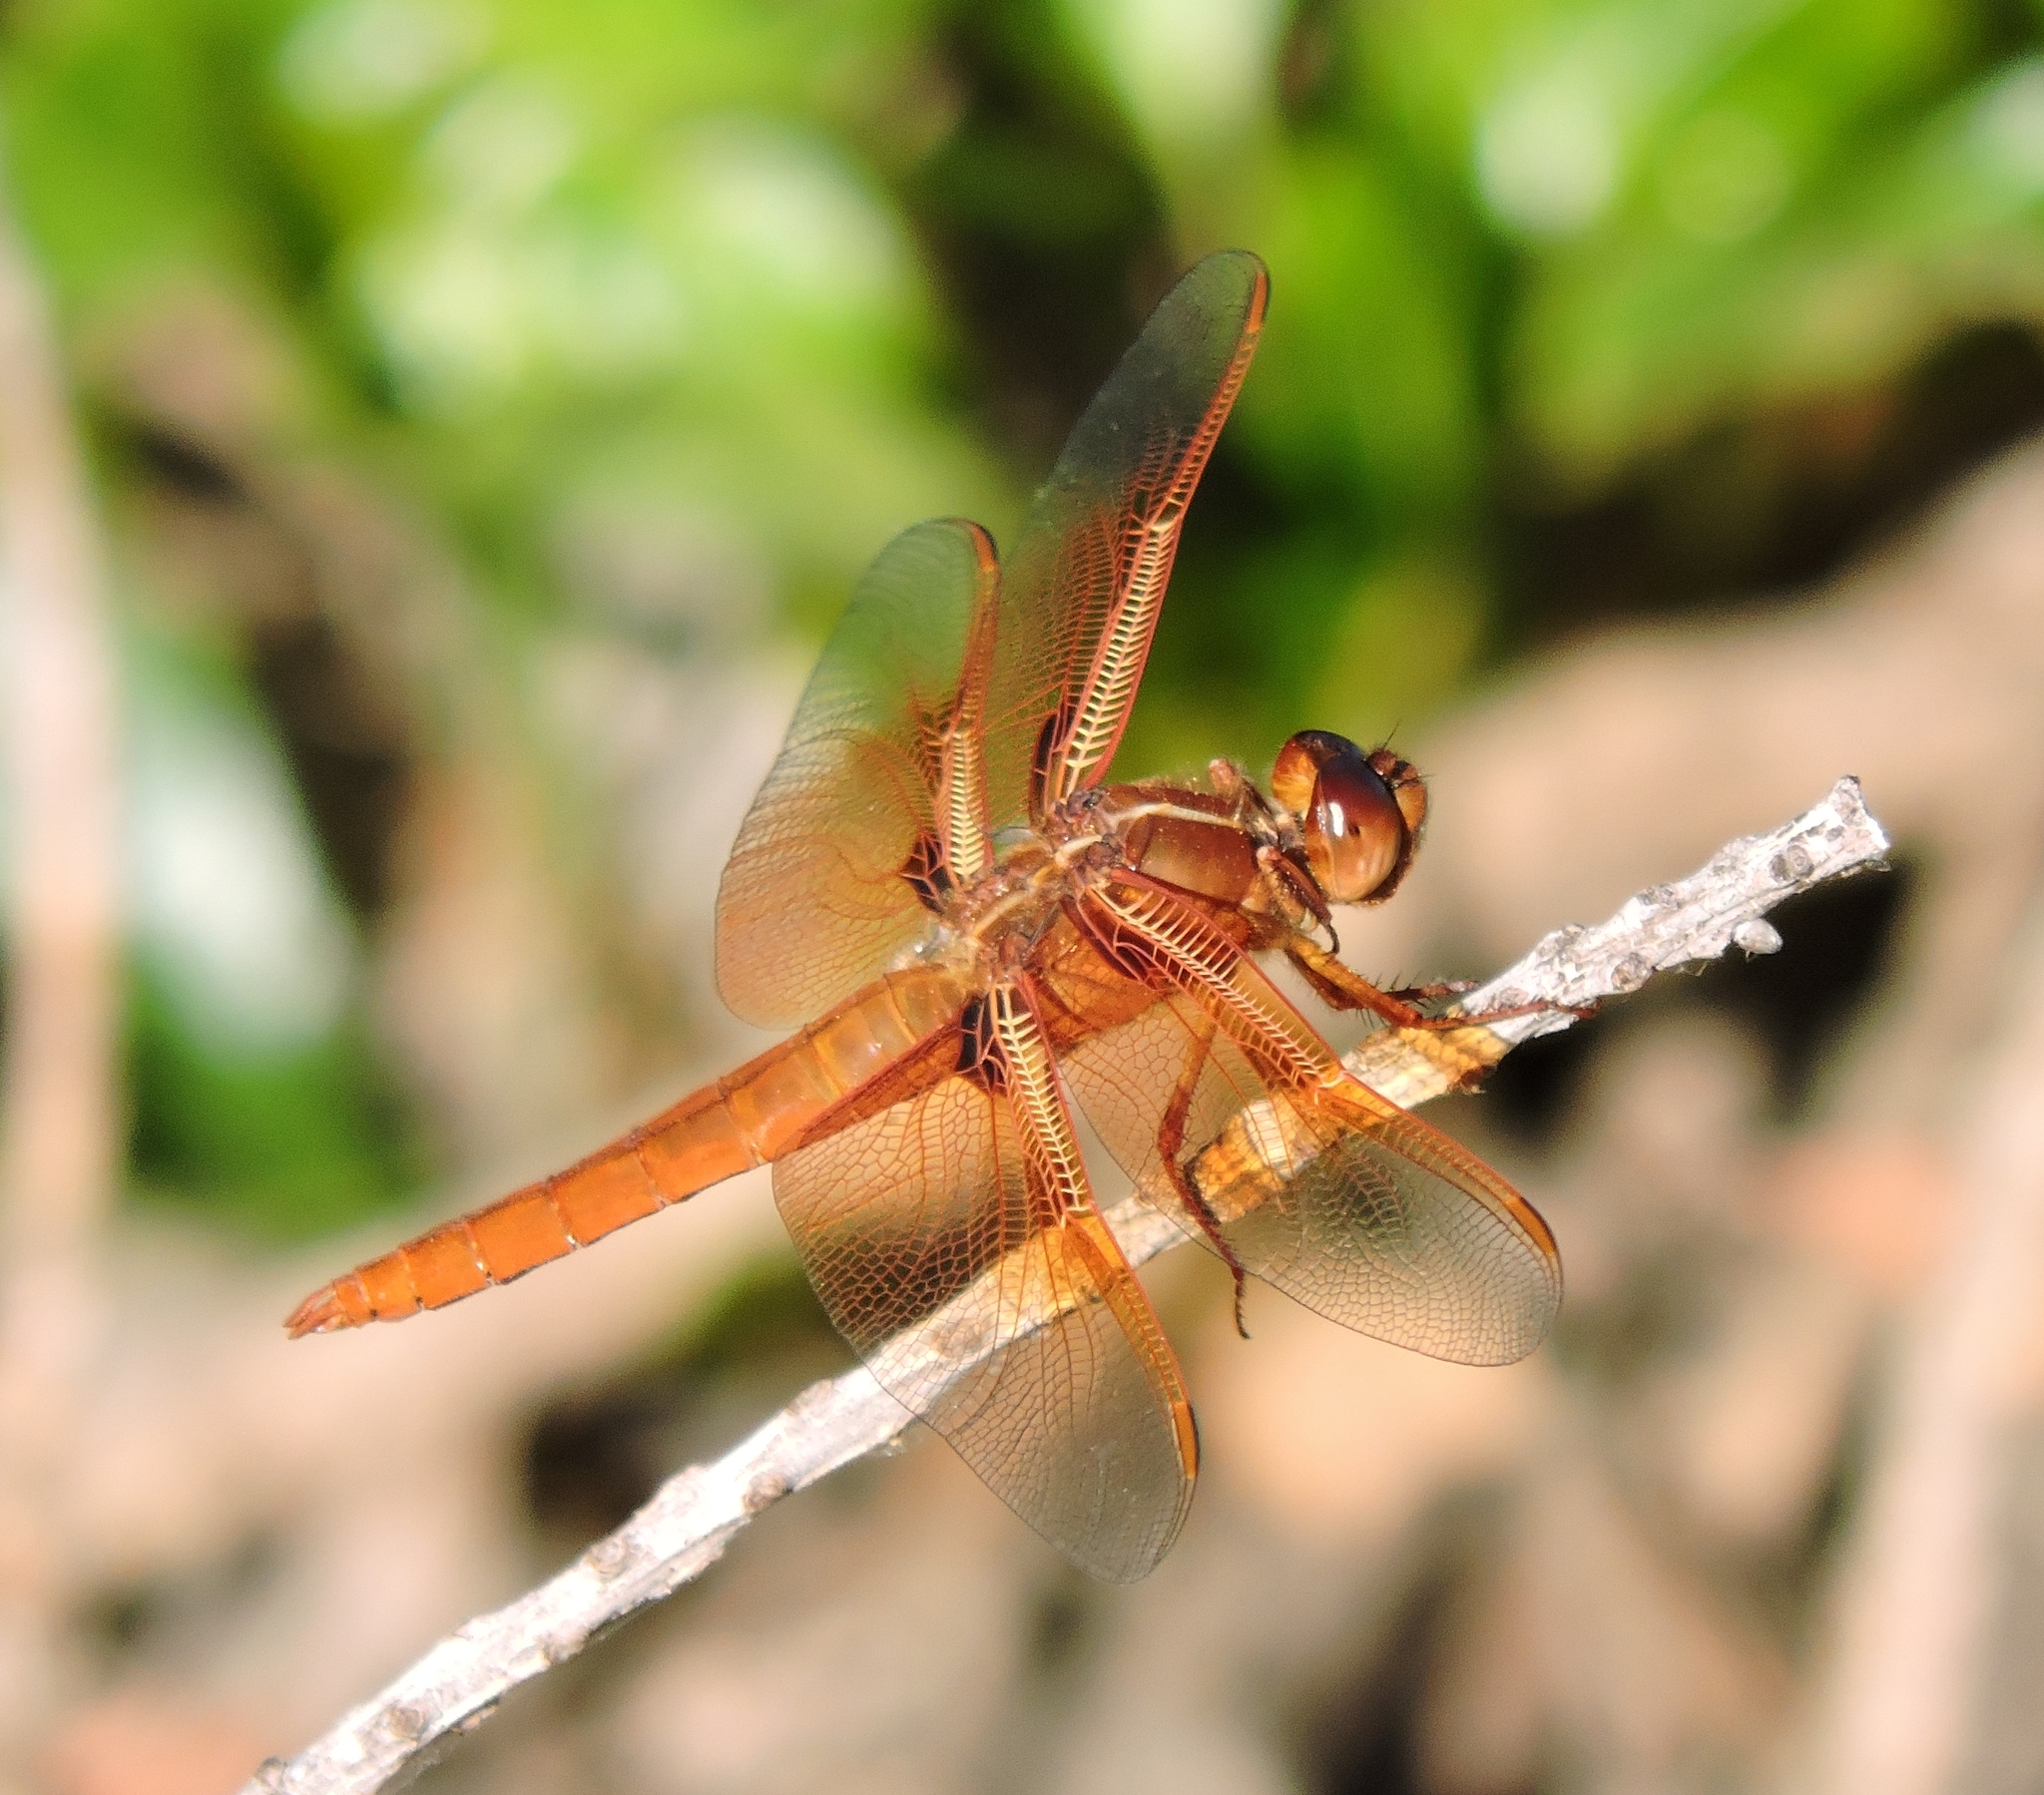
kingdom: Animalia
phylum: Arthropoda
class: Insecta
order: Odonata
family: Libellulidae
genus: Libellula
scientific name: Libellula saturata
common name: Flame skimmer
